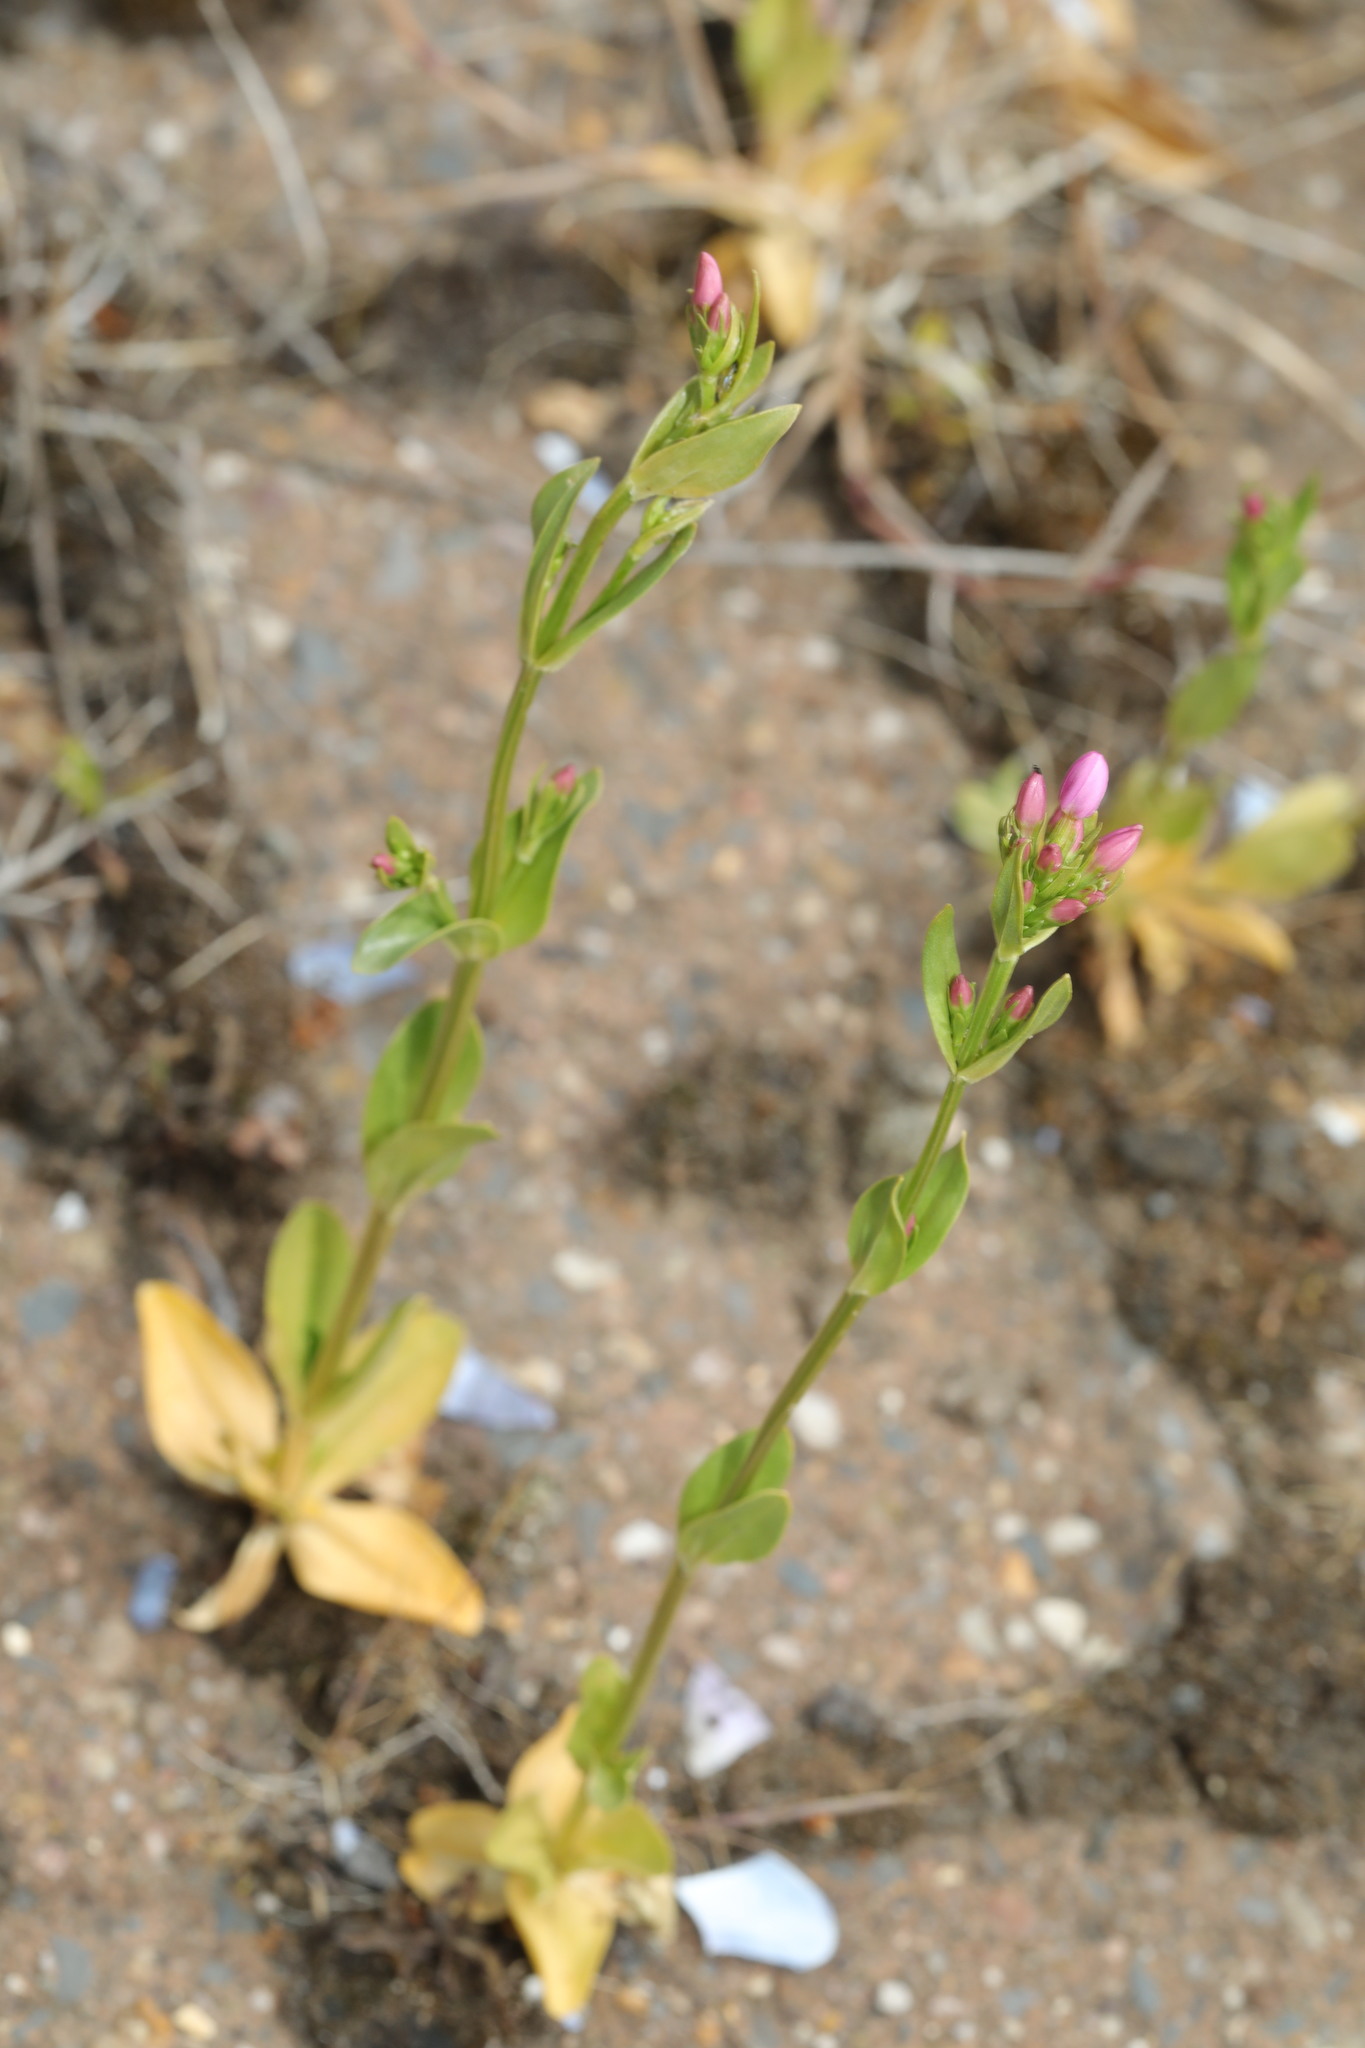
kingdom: Plantae
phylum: Tracheophyta
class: Magnoliopsida
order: Gentianales
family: Gentianaceae
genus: Centaurium
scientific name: Centaurium erythraea
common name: Common centaury
